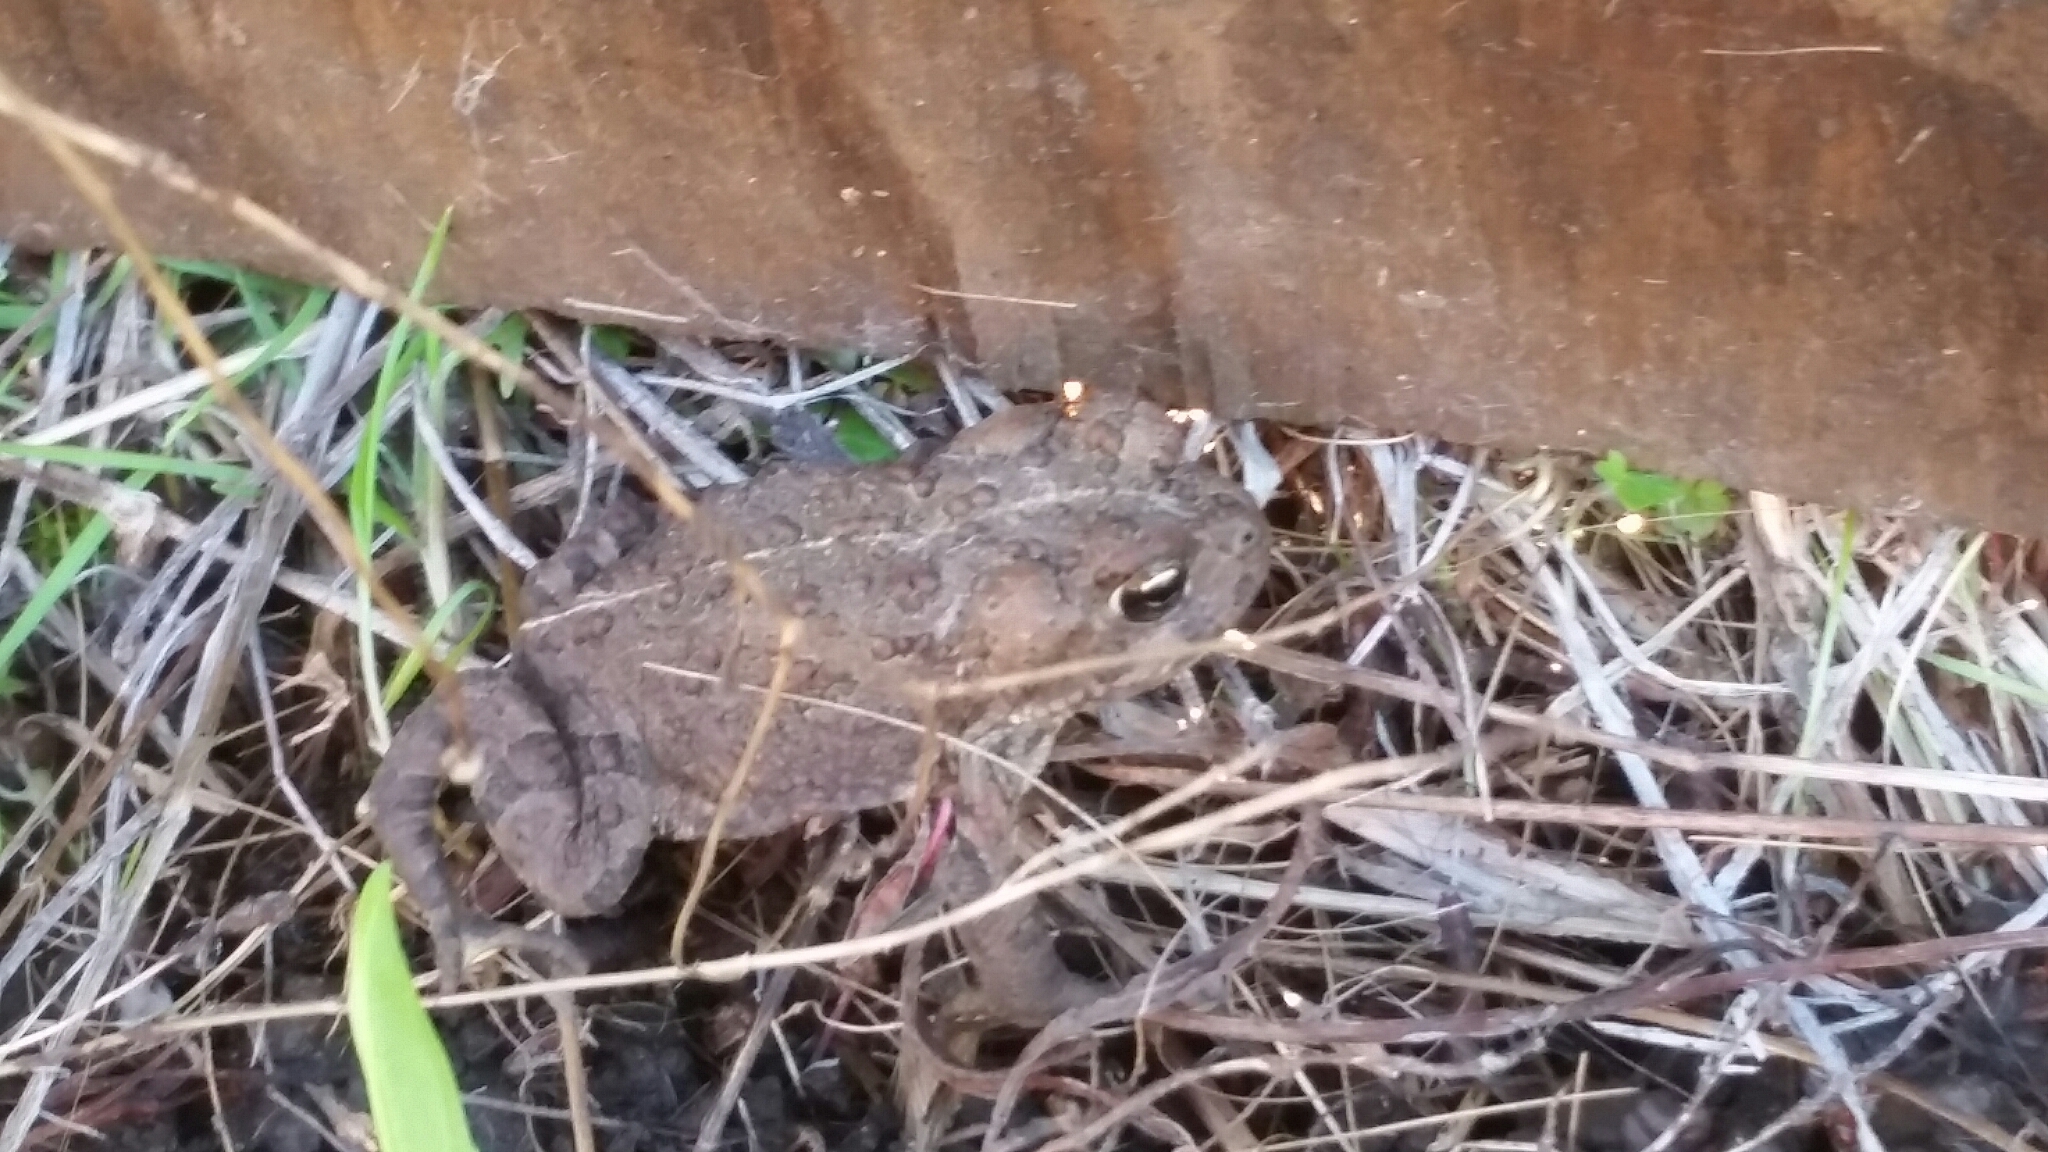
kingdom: Animalia
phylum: Chordata
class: Amphibia
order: Anura
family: Bufonidae
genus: Anaxyrus
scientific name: Anaxyrus boreas
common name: Western toad
